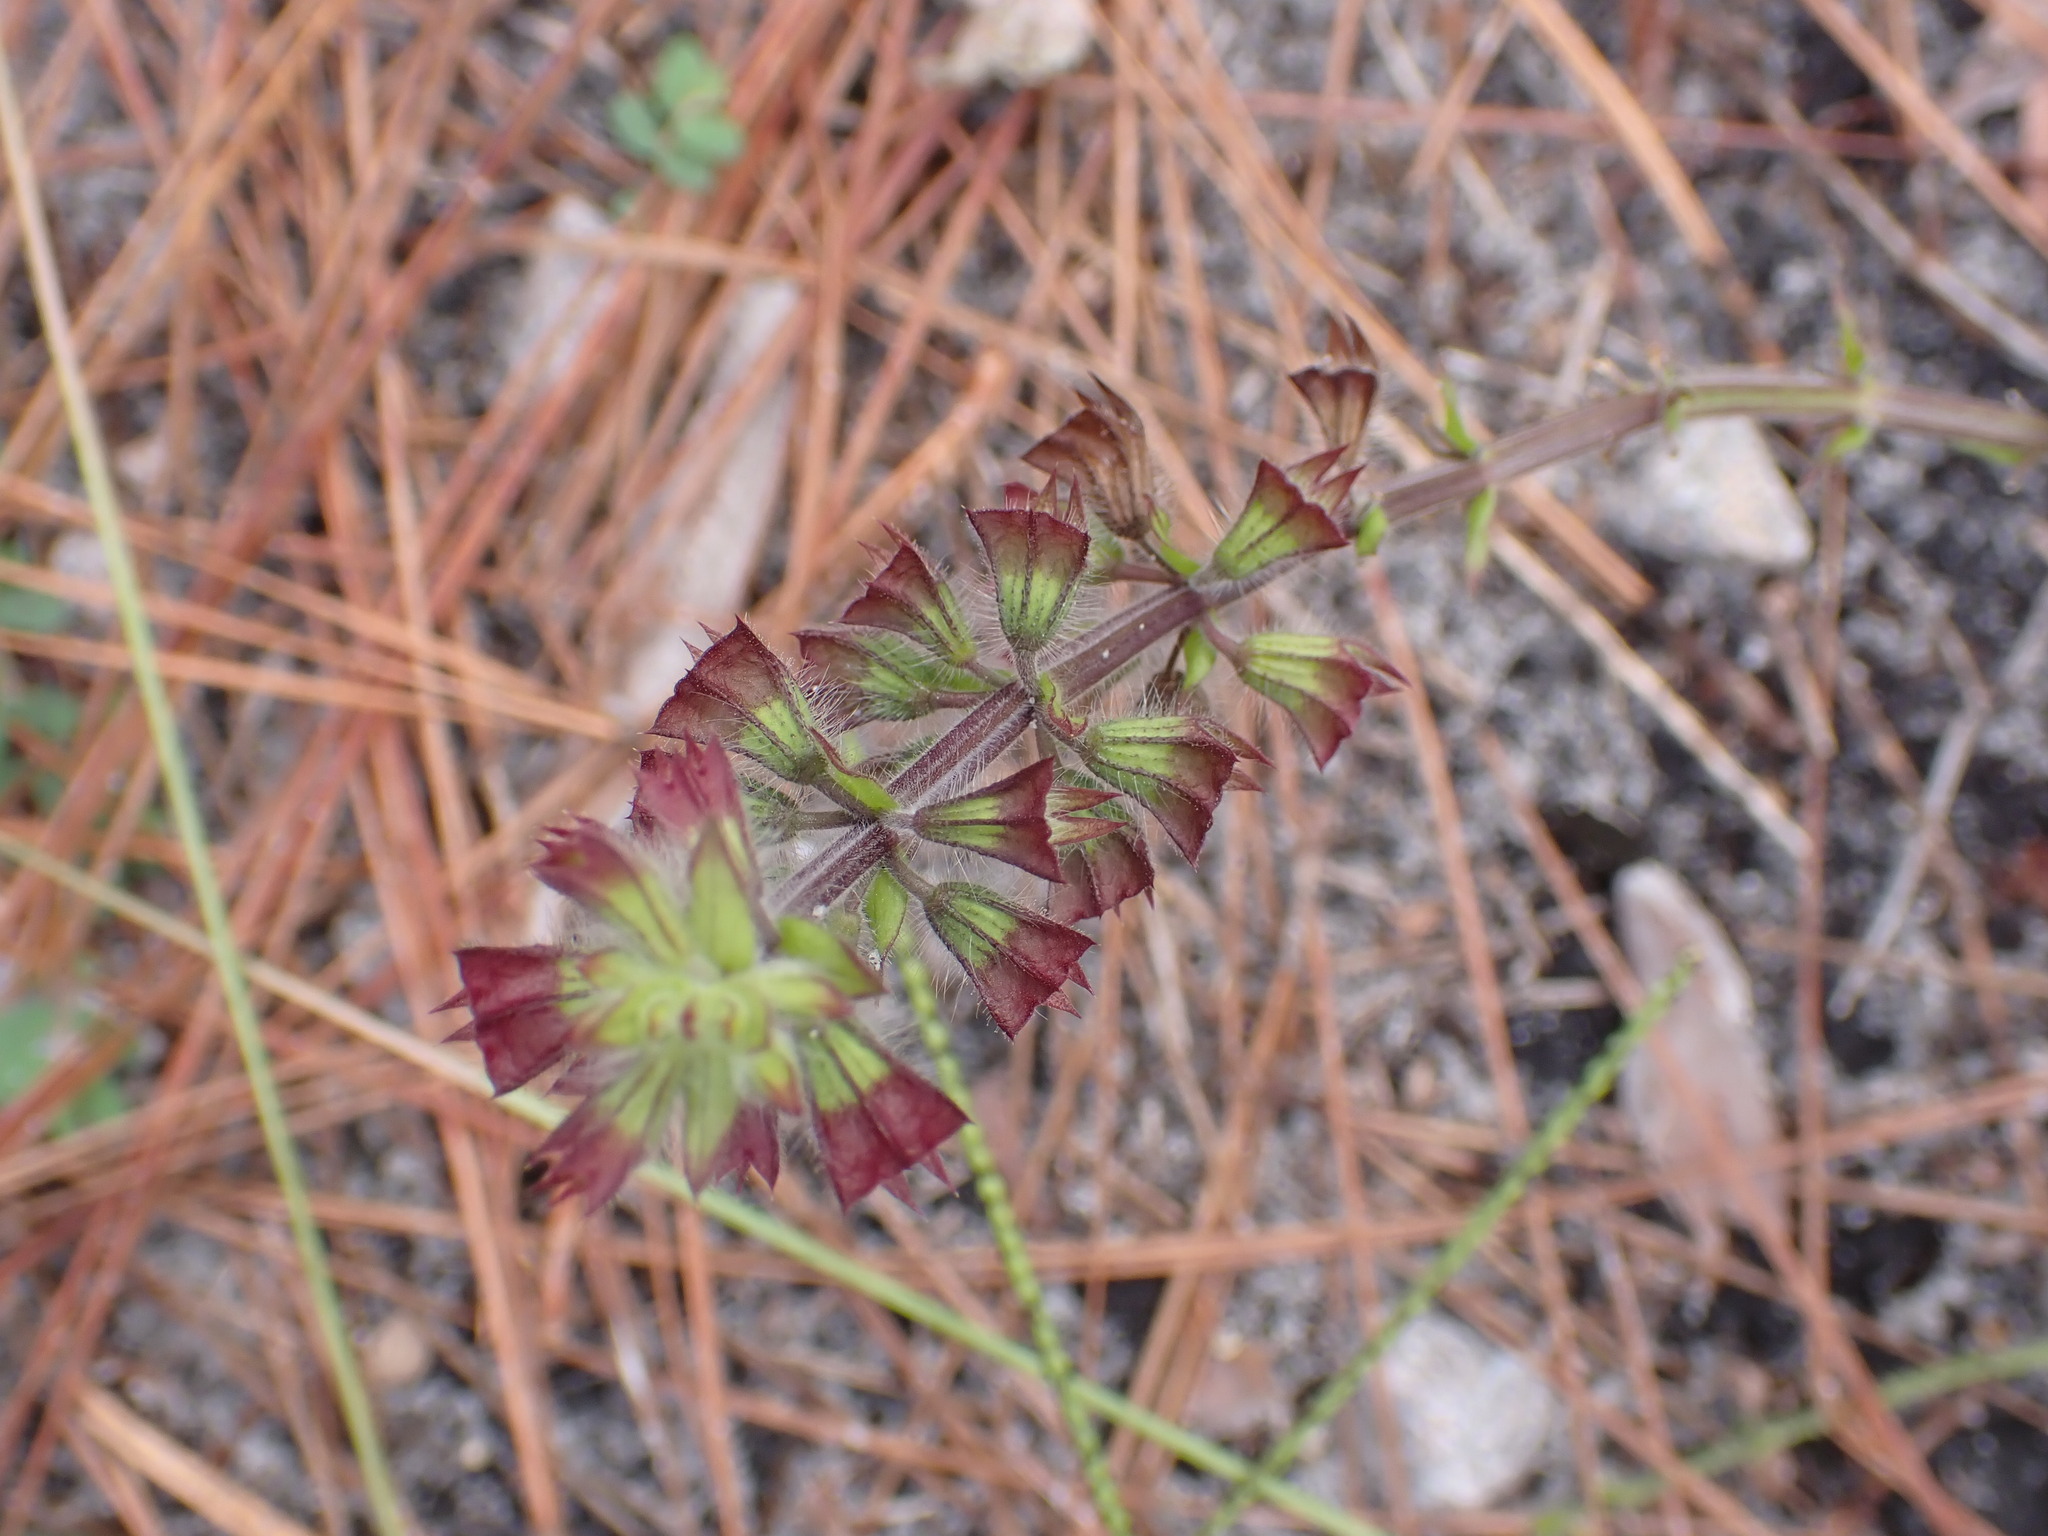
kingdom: Plantae
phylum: Tracheophyta
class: Magnoliopsida
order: Lamiales
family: Lamiaceae
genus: Salvia
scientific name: Salvia lyrata
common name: Cancerweed
